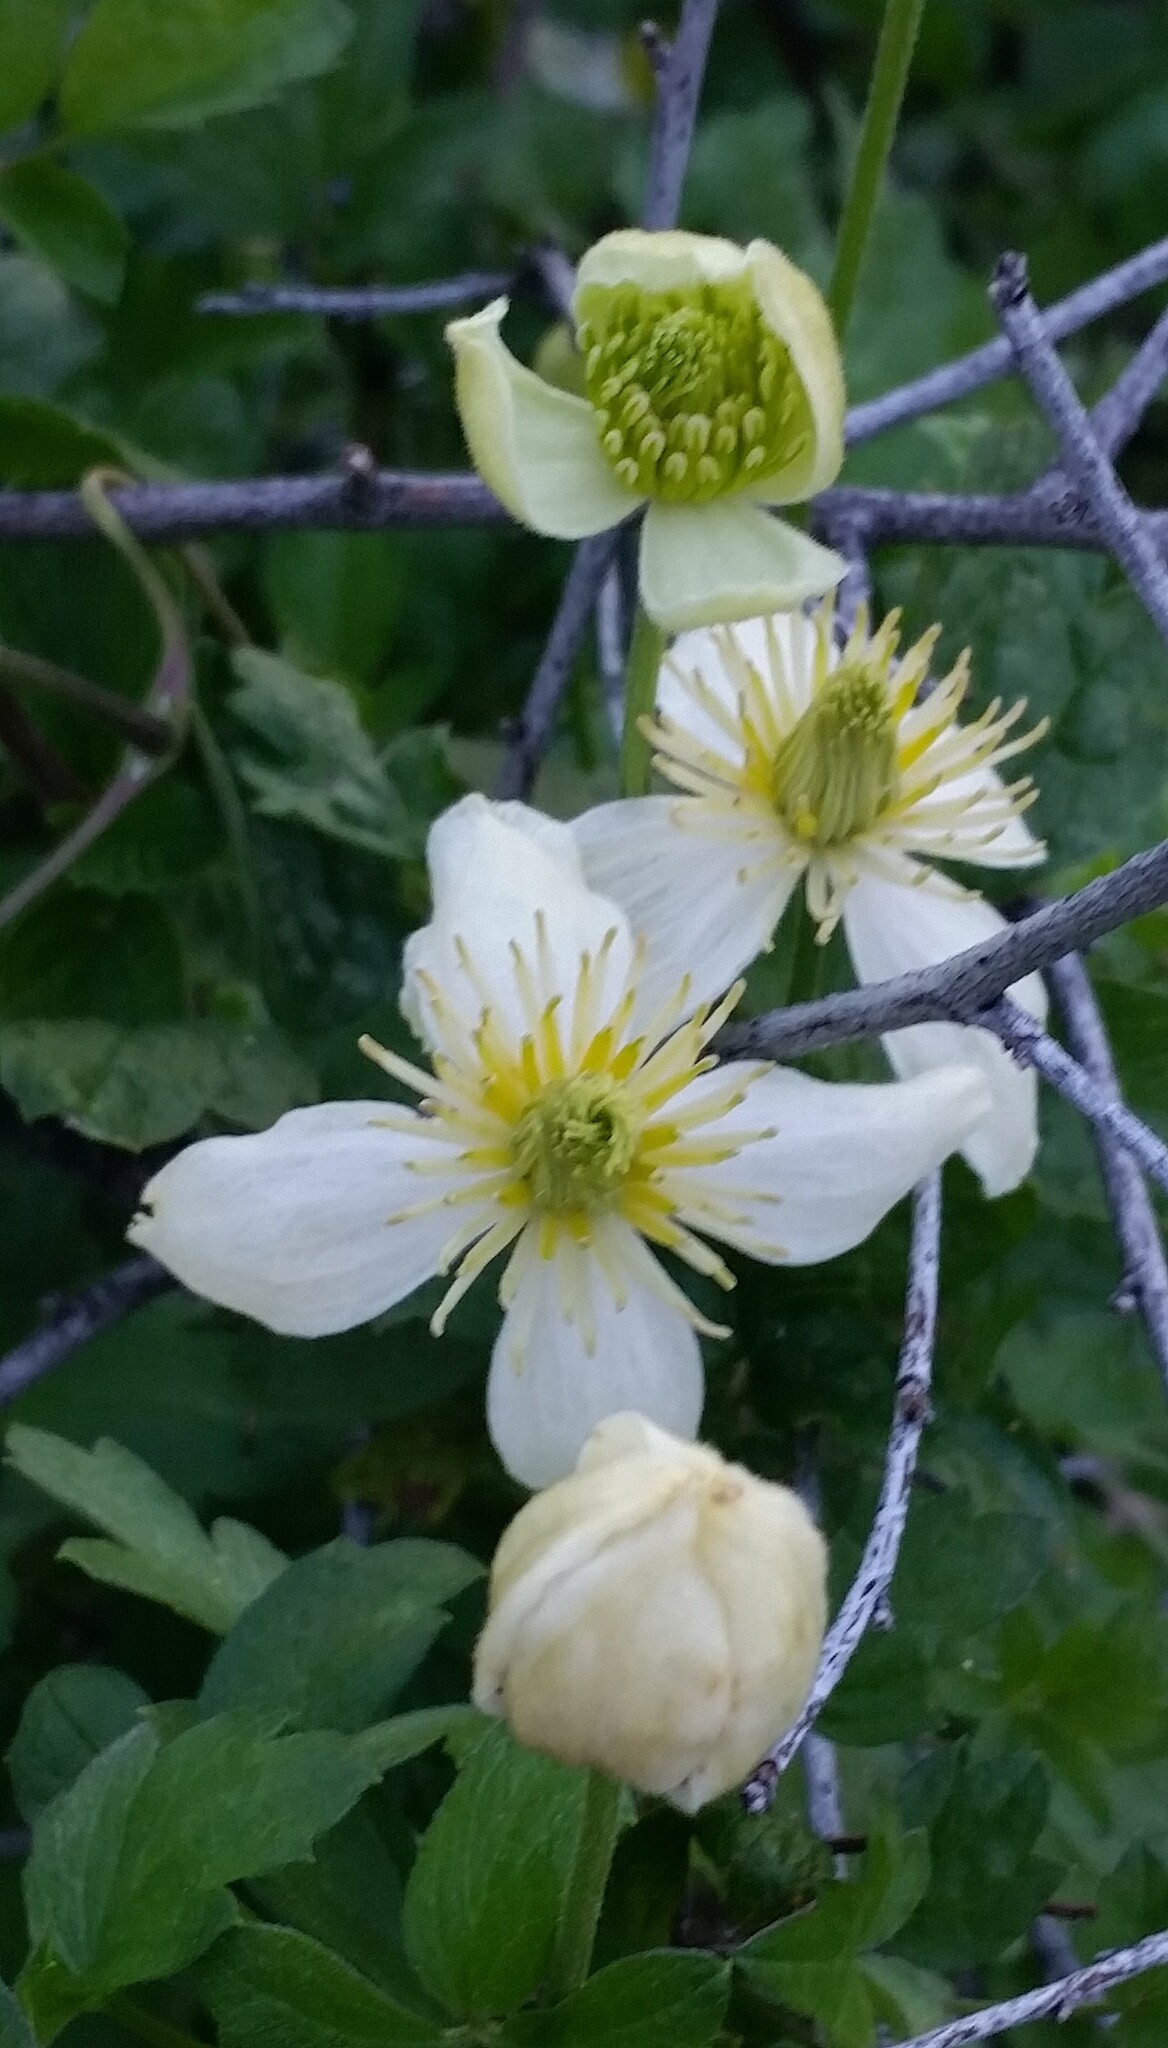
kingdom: Plantae
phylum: Tracheophyta
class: Magnoliopsida
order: Ranunculales
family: Ranunculaceae
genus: Clematis
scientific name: Clematis lasiantha
